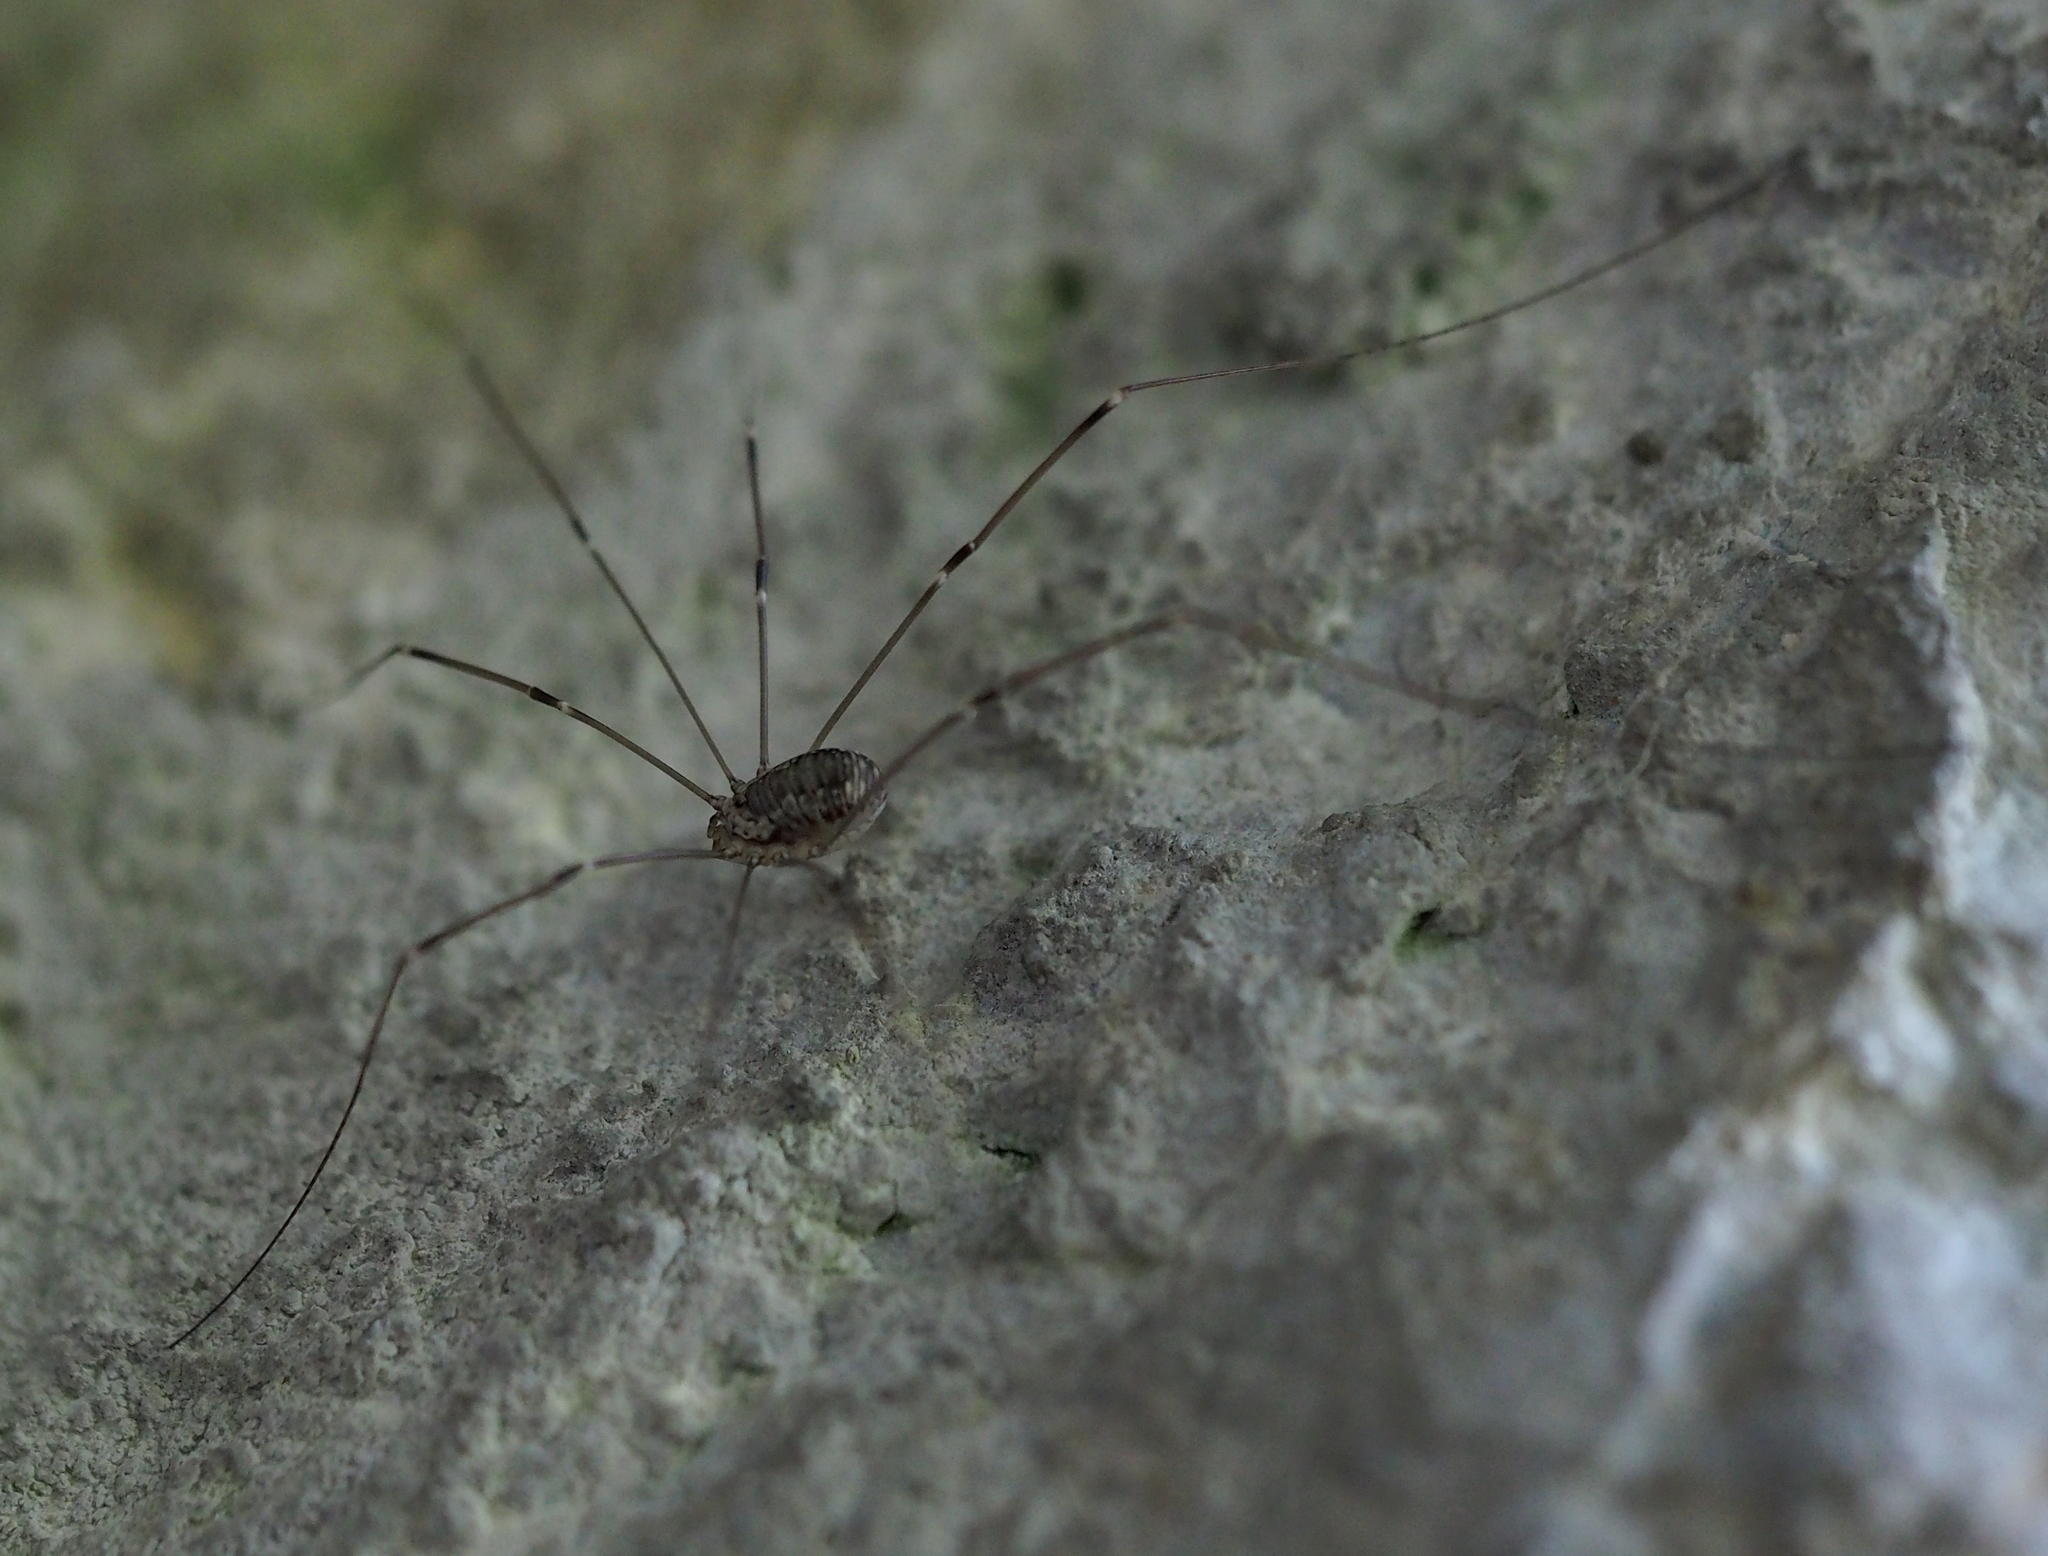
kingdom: Animalia
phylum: Arthropoda
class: Arachnida
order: Opiliones
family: Sclerosomatidae
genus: Leiobunum
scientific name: Leiobunum limbatum
